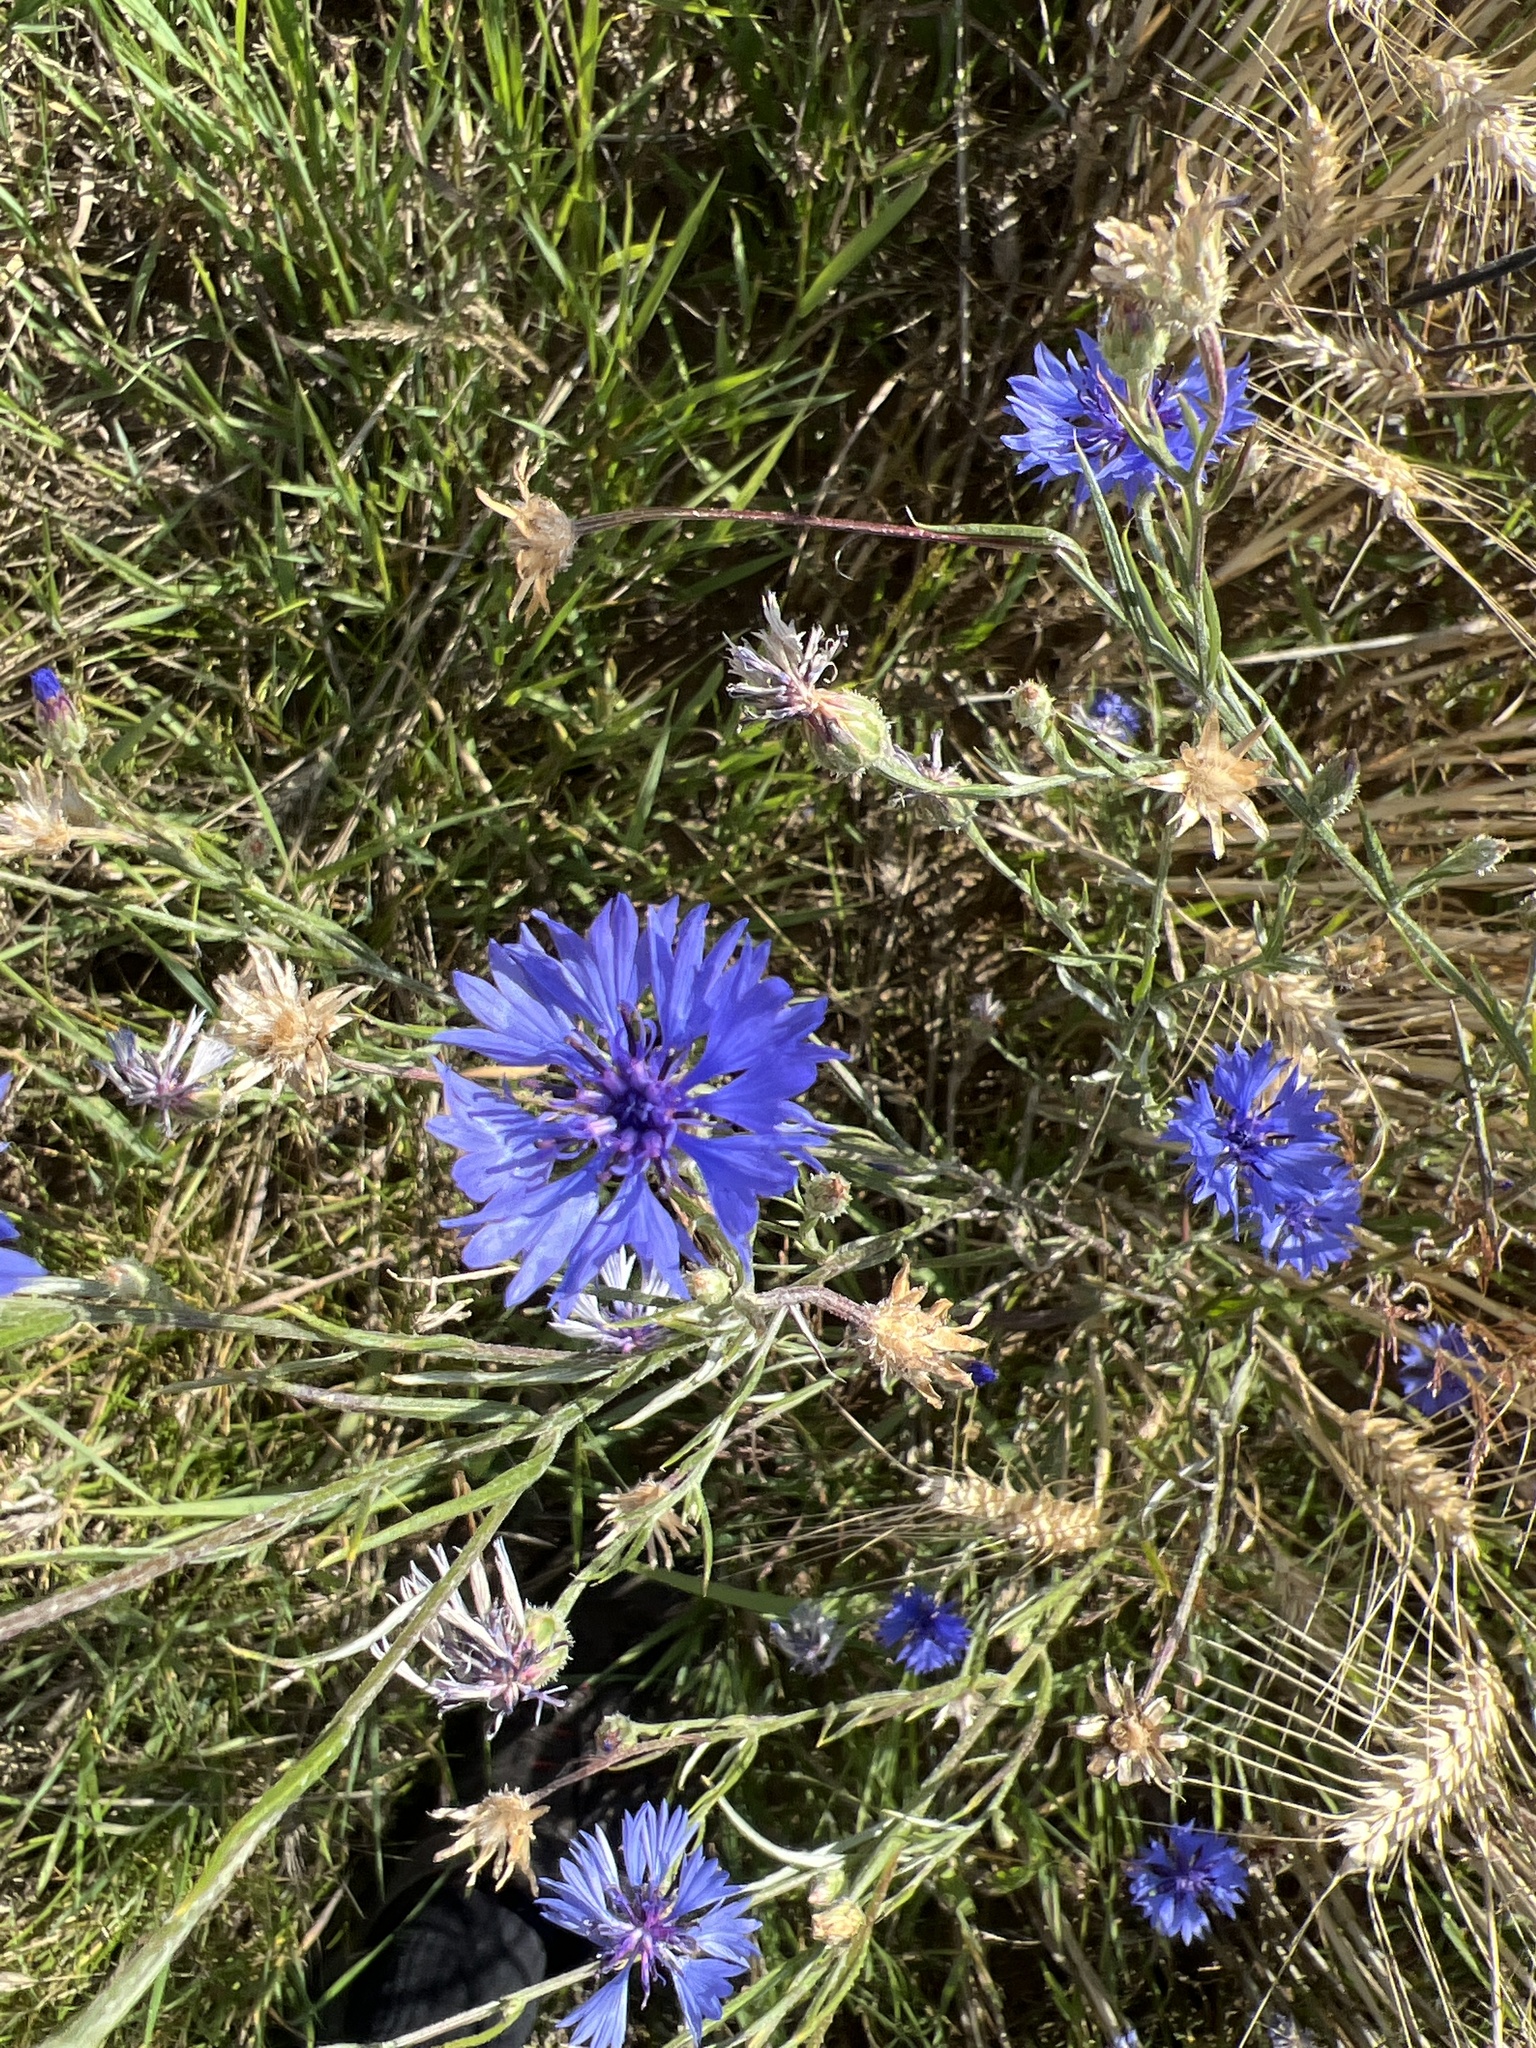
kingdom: Plantae
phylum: Tracheophyta
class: Magnoliopsida
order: Asterales
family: Asteraceae
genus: Centaurea
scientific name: Centaurea cyanus
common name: Cornflower
